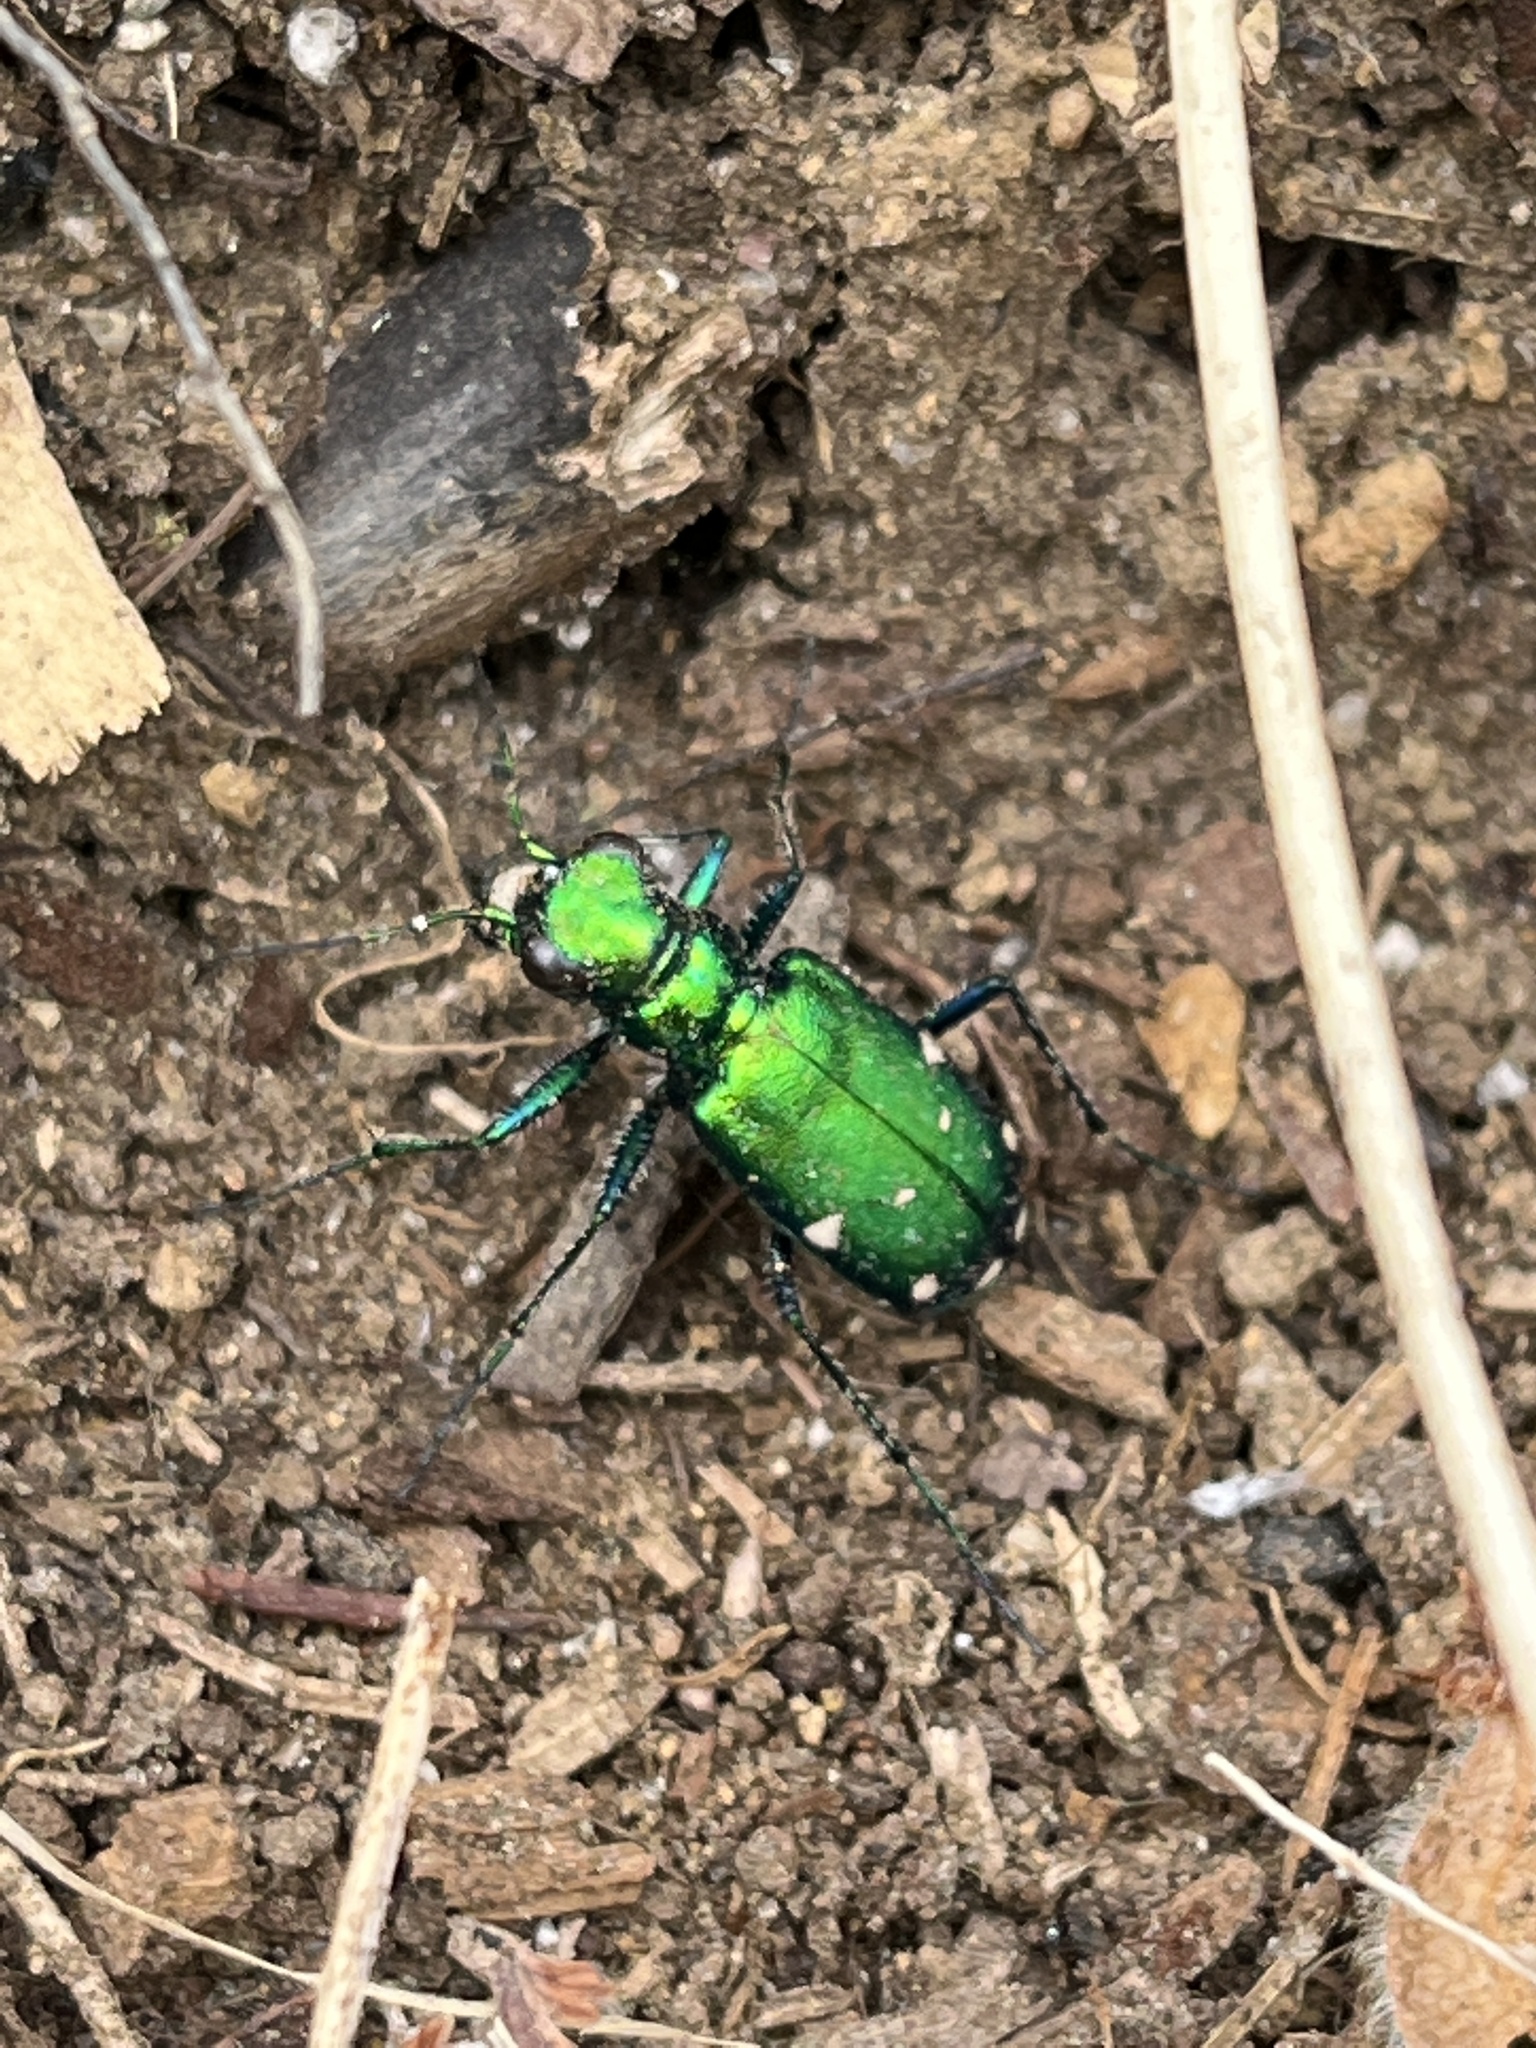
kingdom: Animalia
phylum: Arthropoda
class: Insecta
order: Coleoptera
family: Carabidae
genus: Cicindela
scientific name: Cicindela sexguttata
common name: Six-spotted tiger beetle
